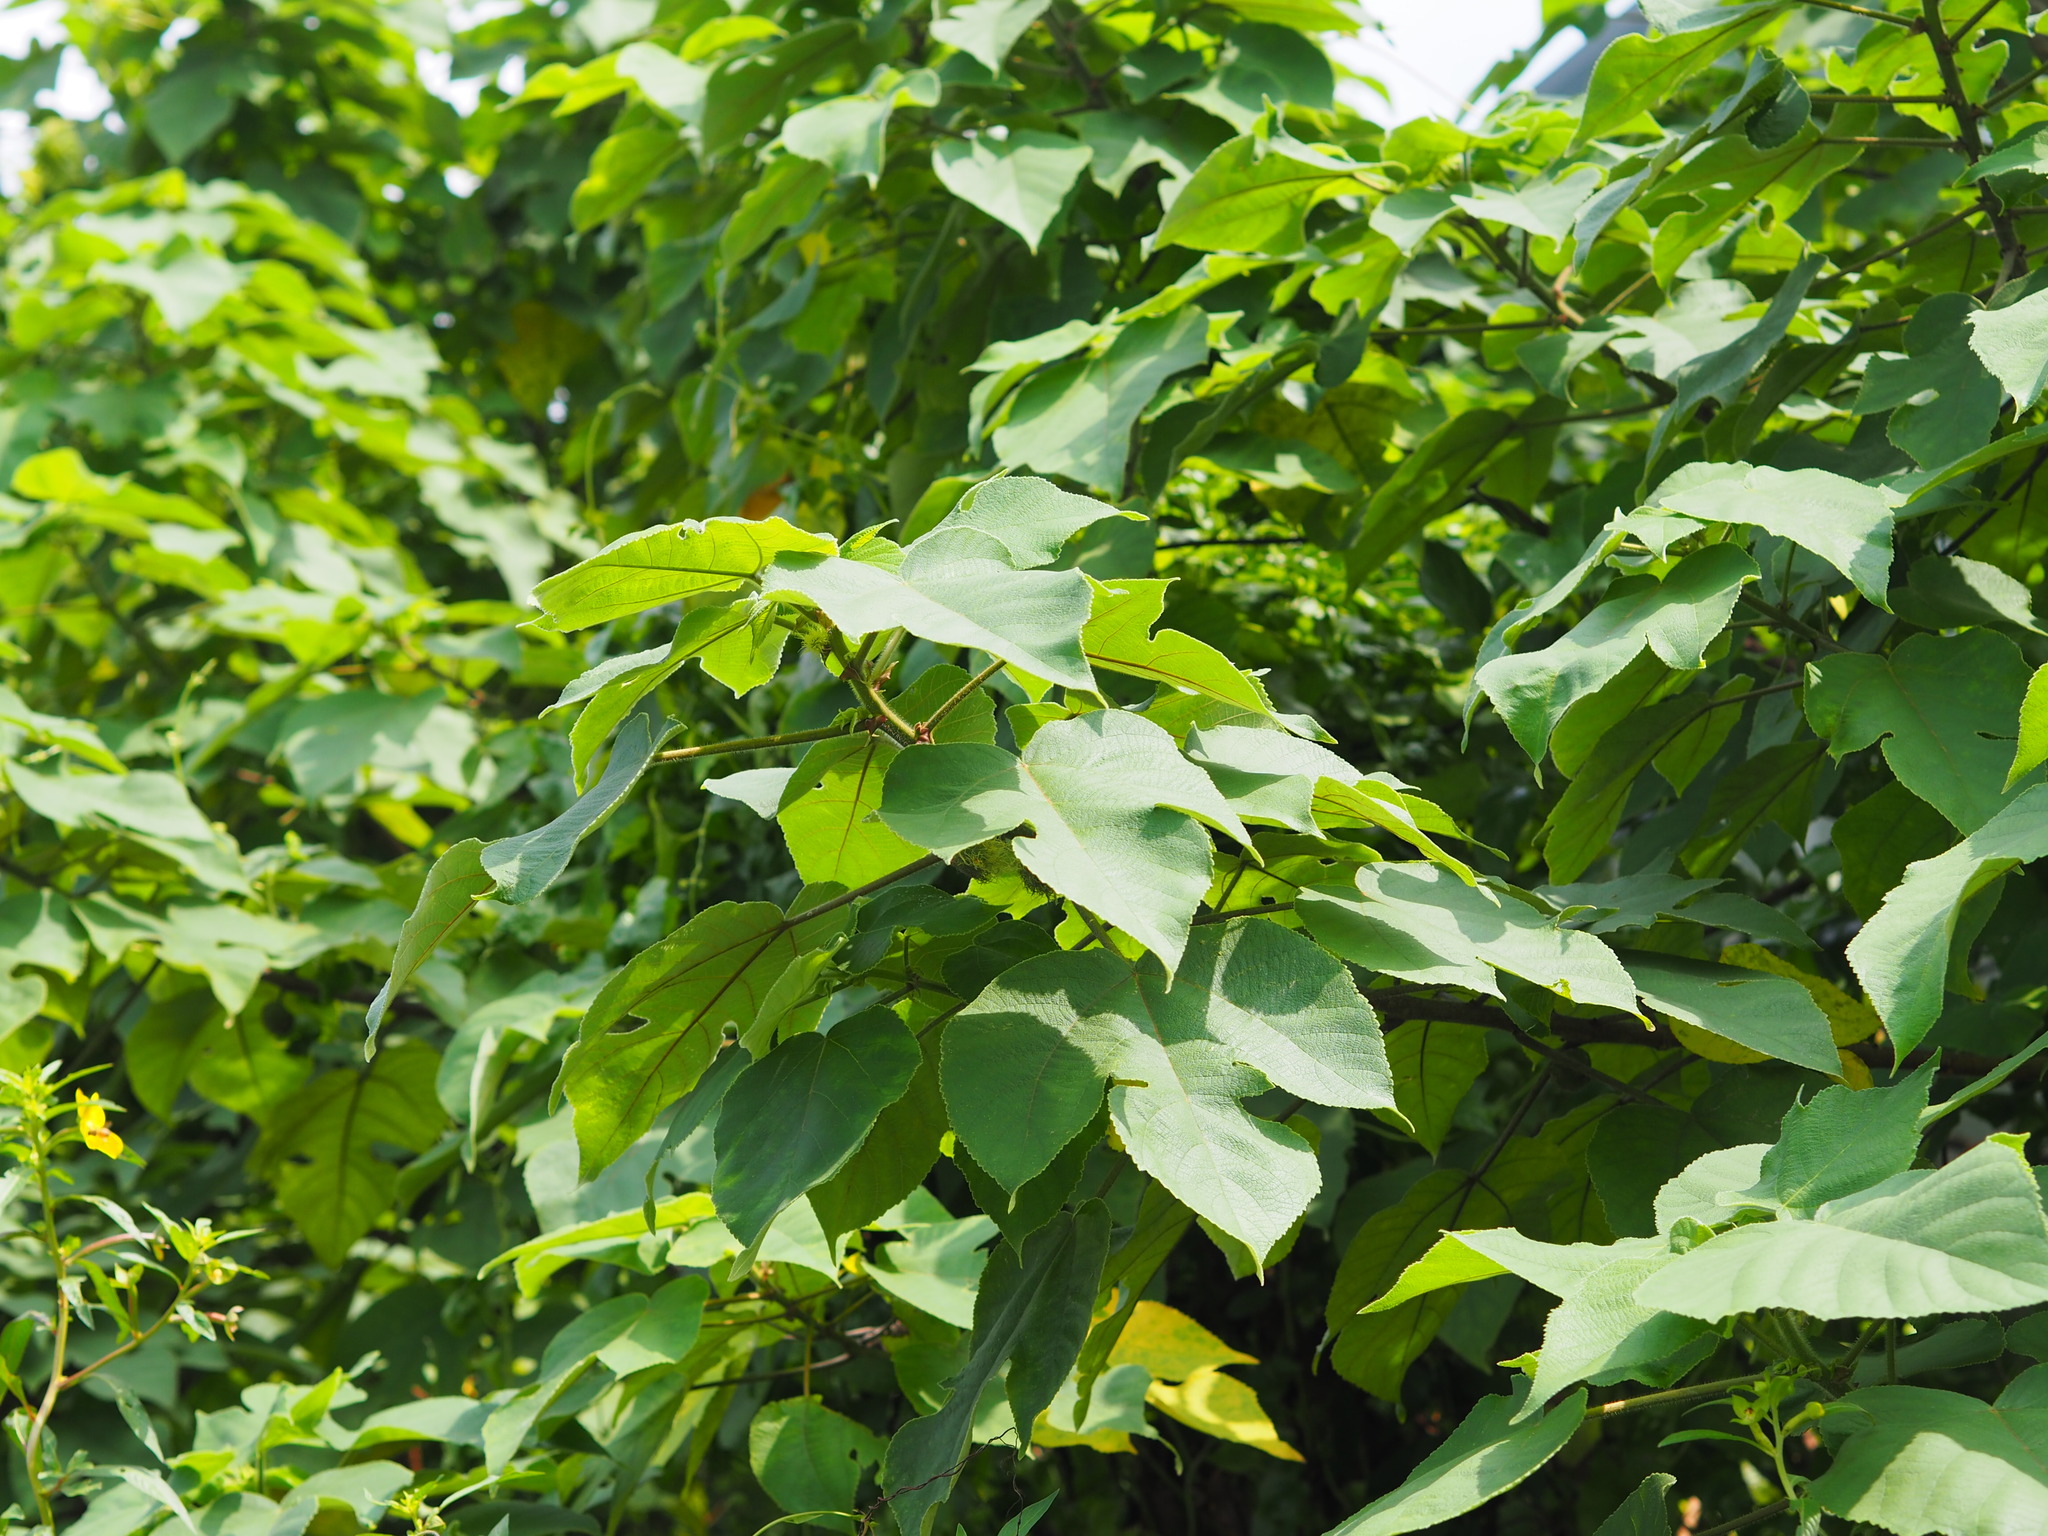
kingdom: Plantae
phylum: Tracheophyta
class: Magnoliopsida
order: Rosales
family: Moraceae
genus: Broussonetia
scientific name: Broussonetia papyrifera
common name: Paper mulberry
